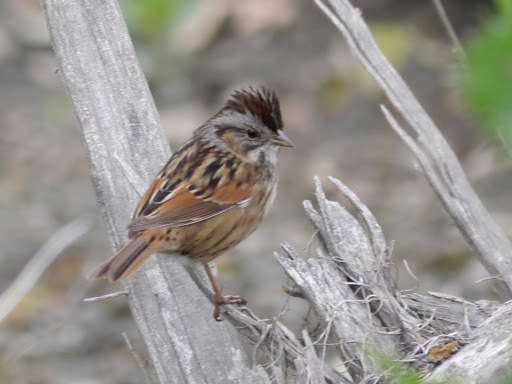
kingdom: Animalia
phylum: Chordata
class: Aves
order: Passeriformes
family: Passerellidae
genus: Melospiza
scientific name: Melospiza georgiana
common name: Swamp sparrow
